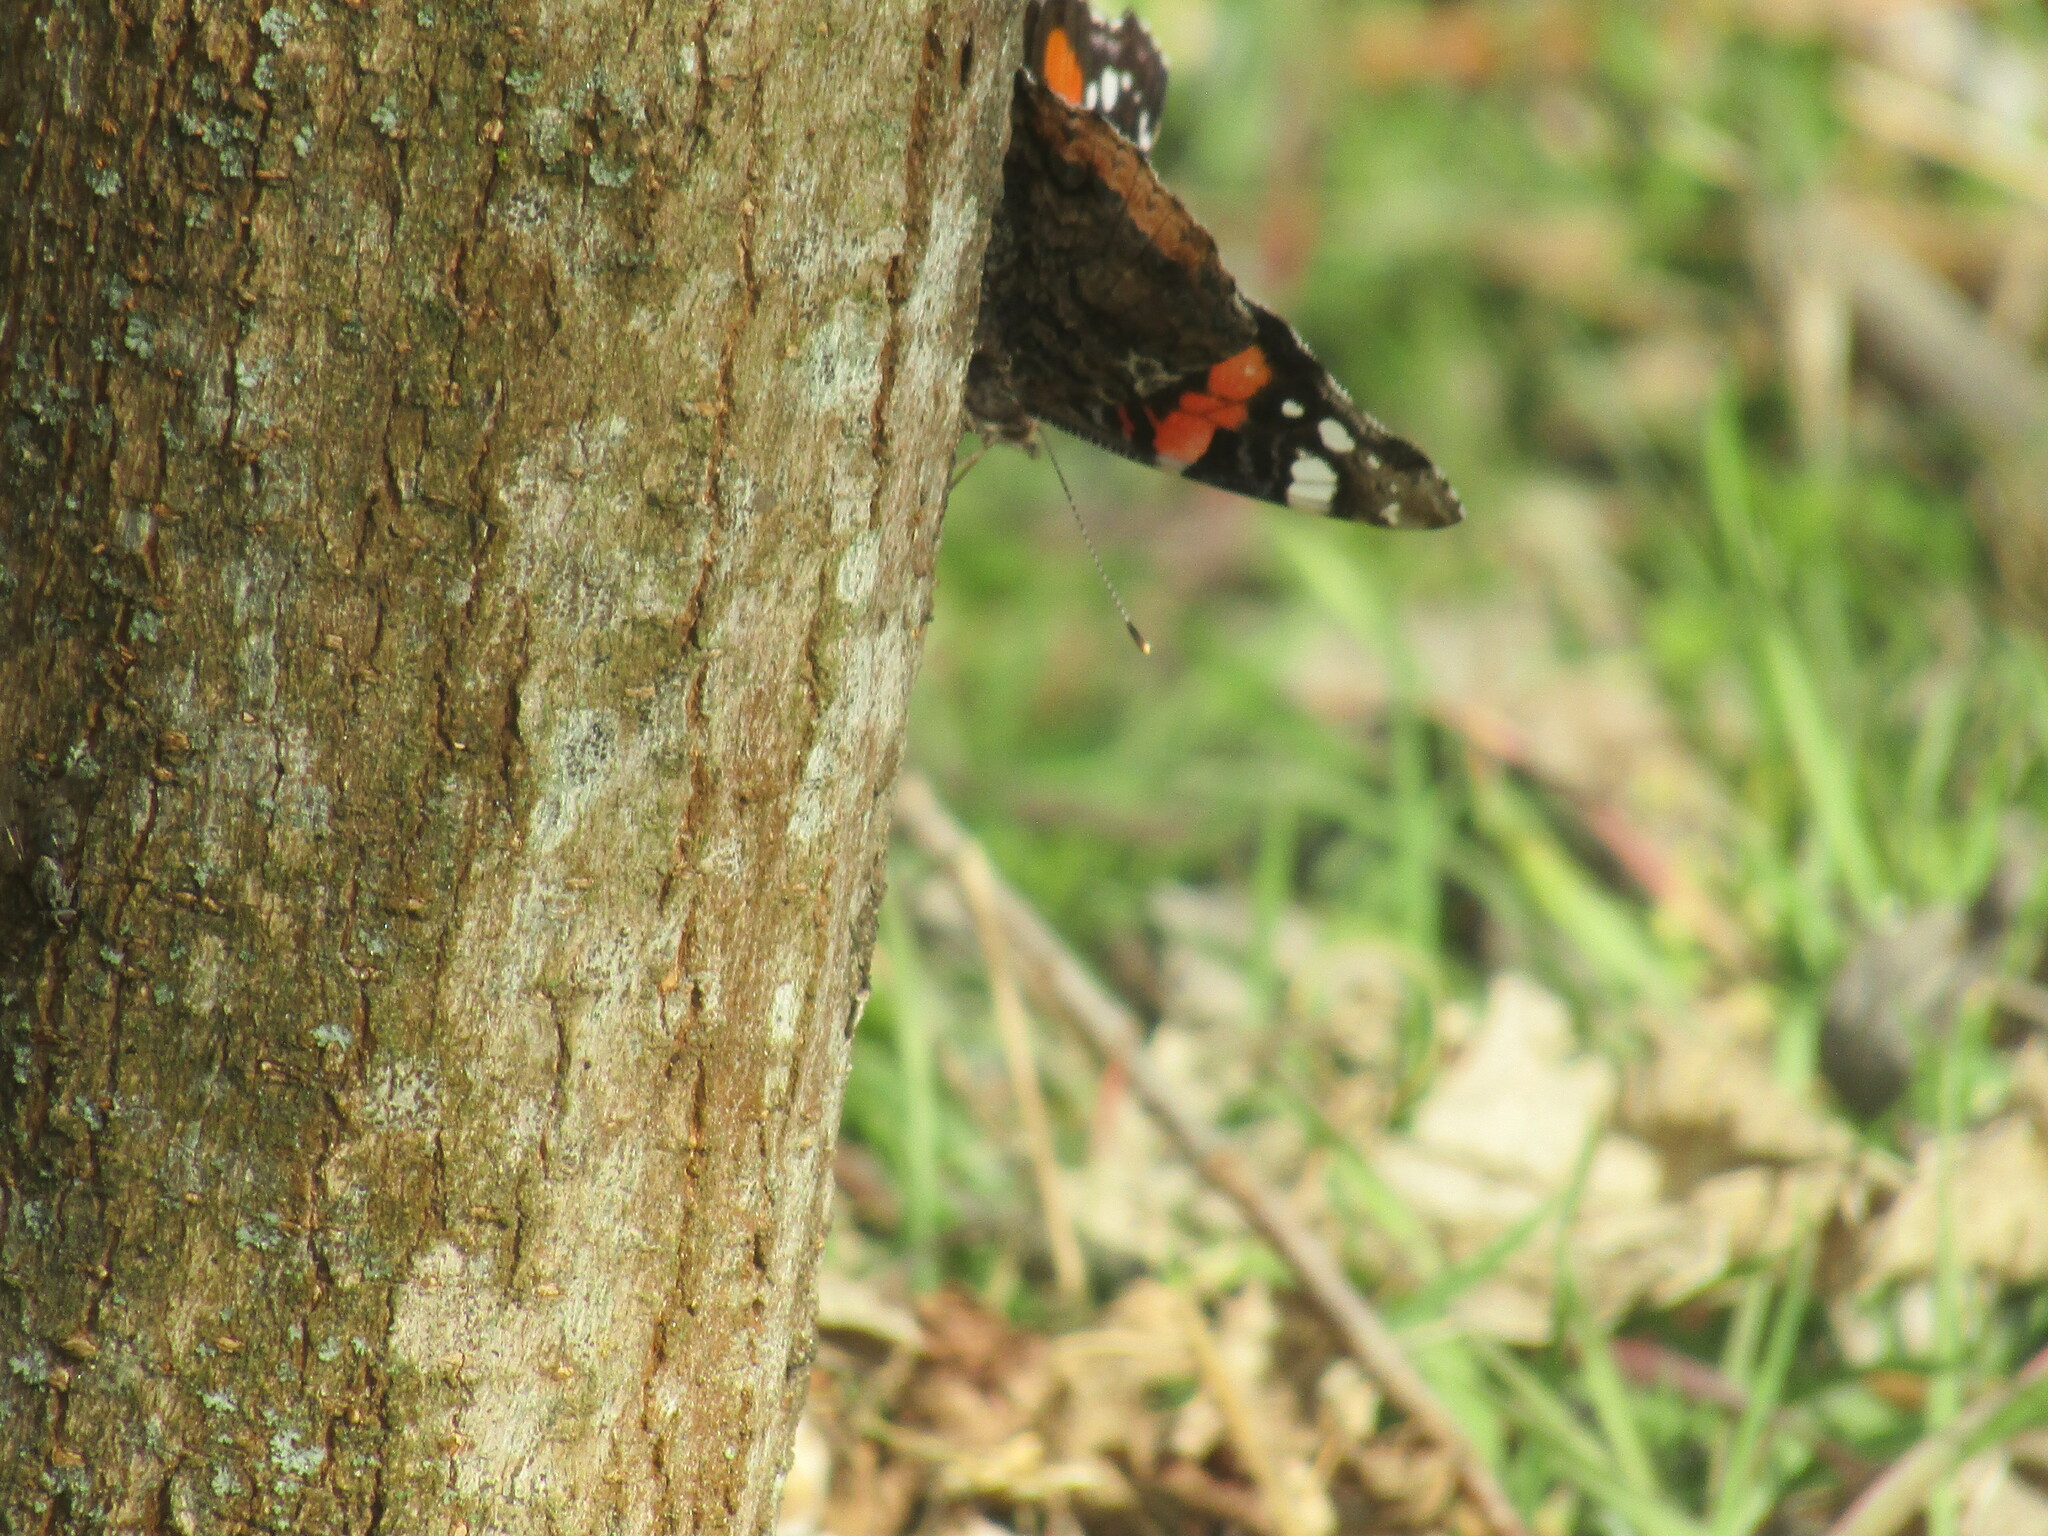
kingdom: Animalia
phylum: Arthropoda
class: Insecta
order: Lepidoptera
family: Nymphalidae
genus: Vanessa
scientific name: Vanessa atalanta
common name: Red admiral
